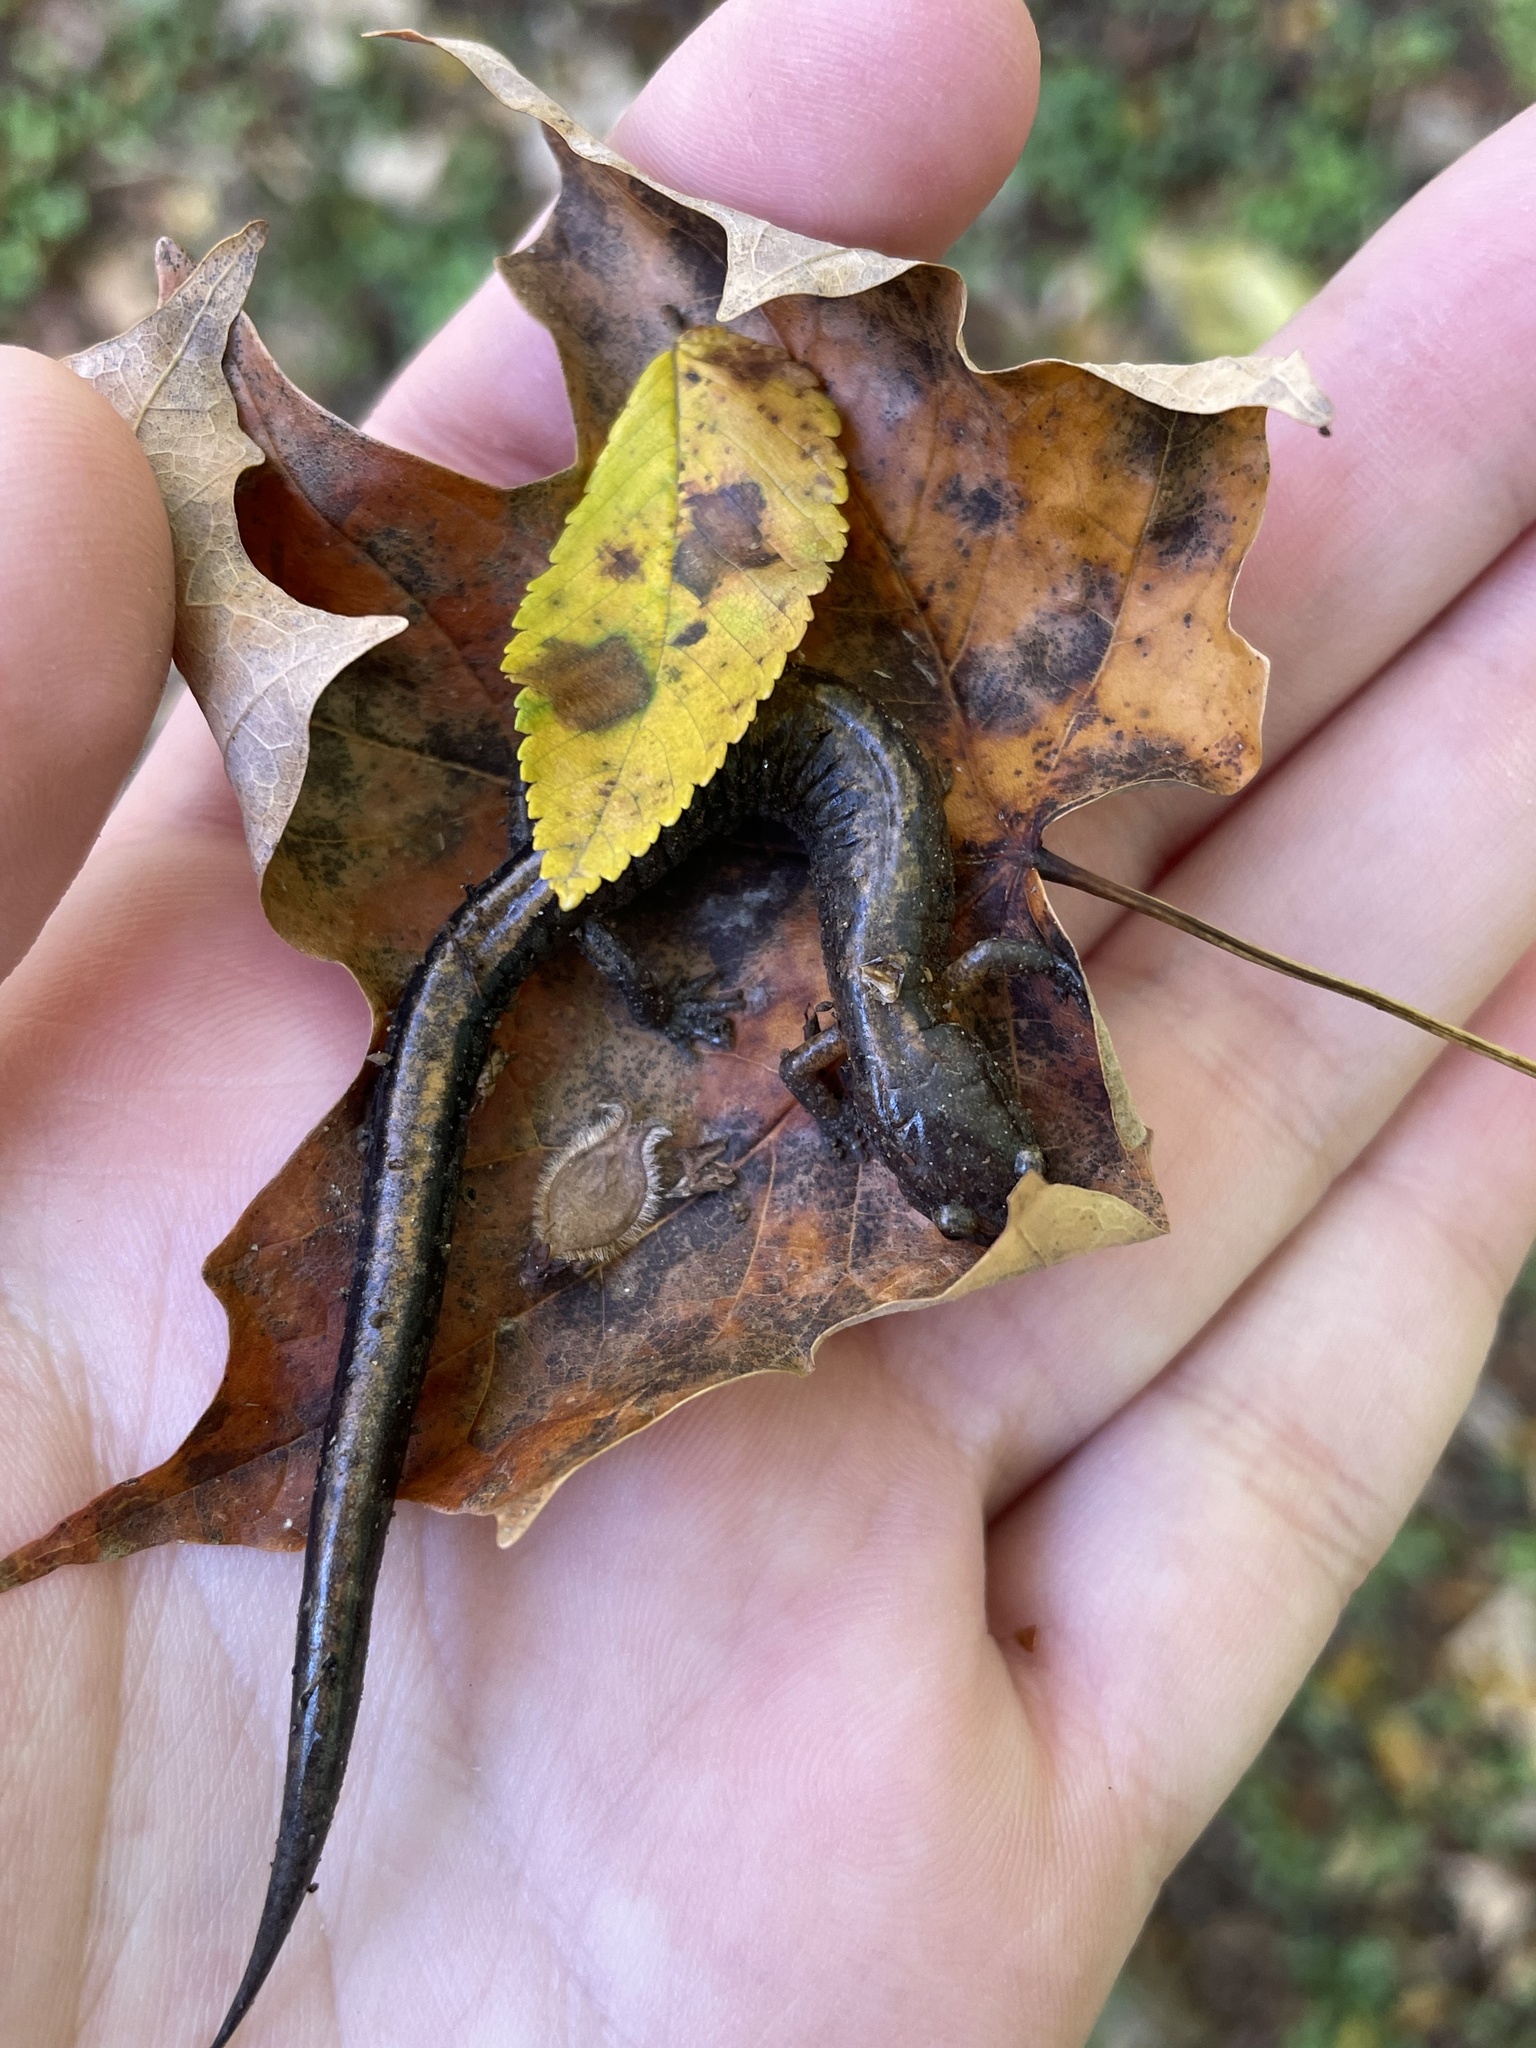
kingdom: Animalia
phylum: Chordata
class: Amphibia
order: Caudata
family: Plethodontidae
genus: Plethodon
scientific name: Plethodon dorsalis
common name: Northern zigzag salamander
